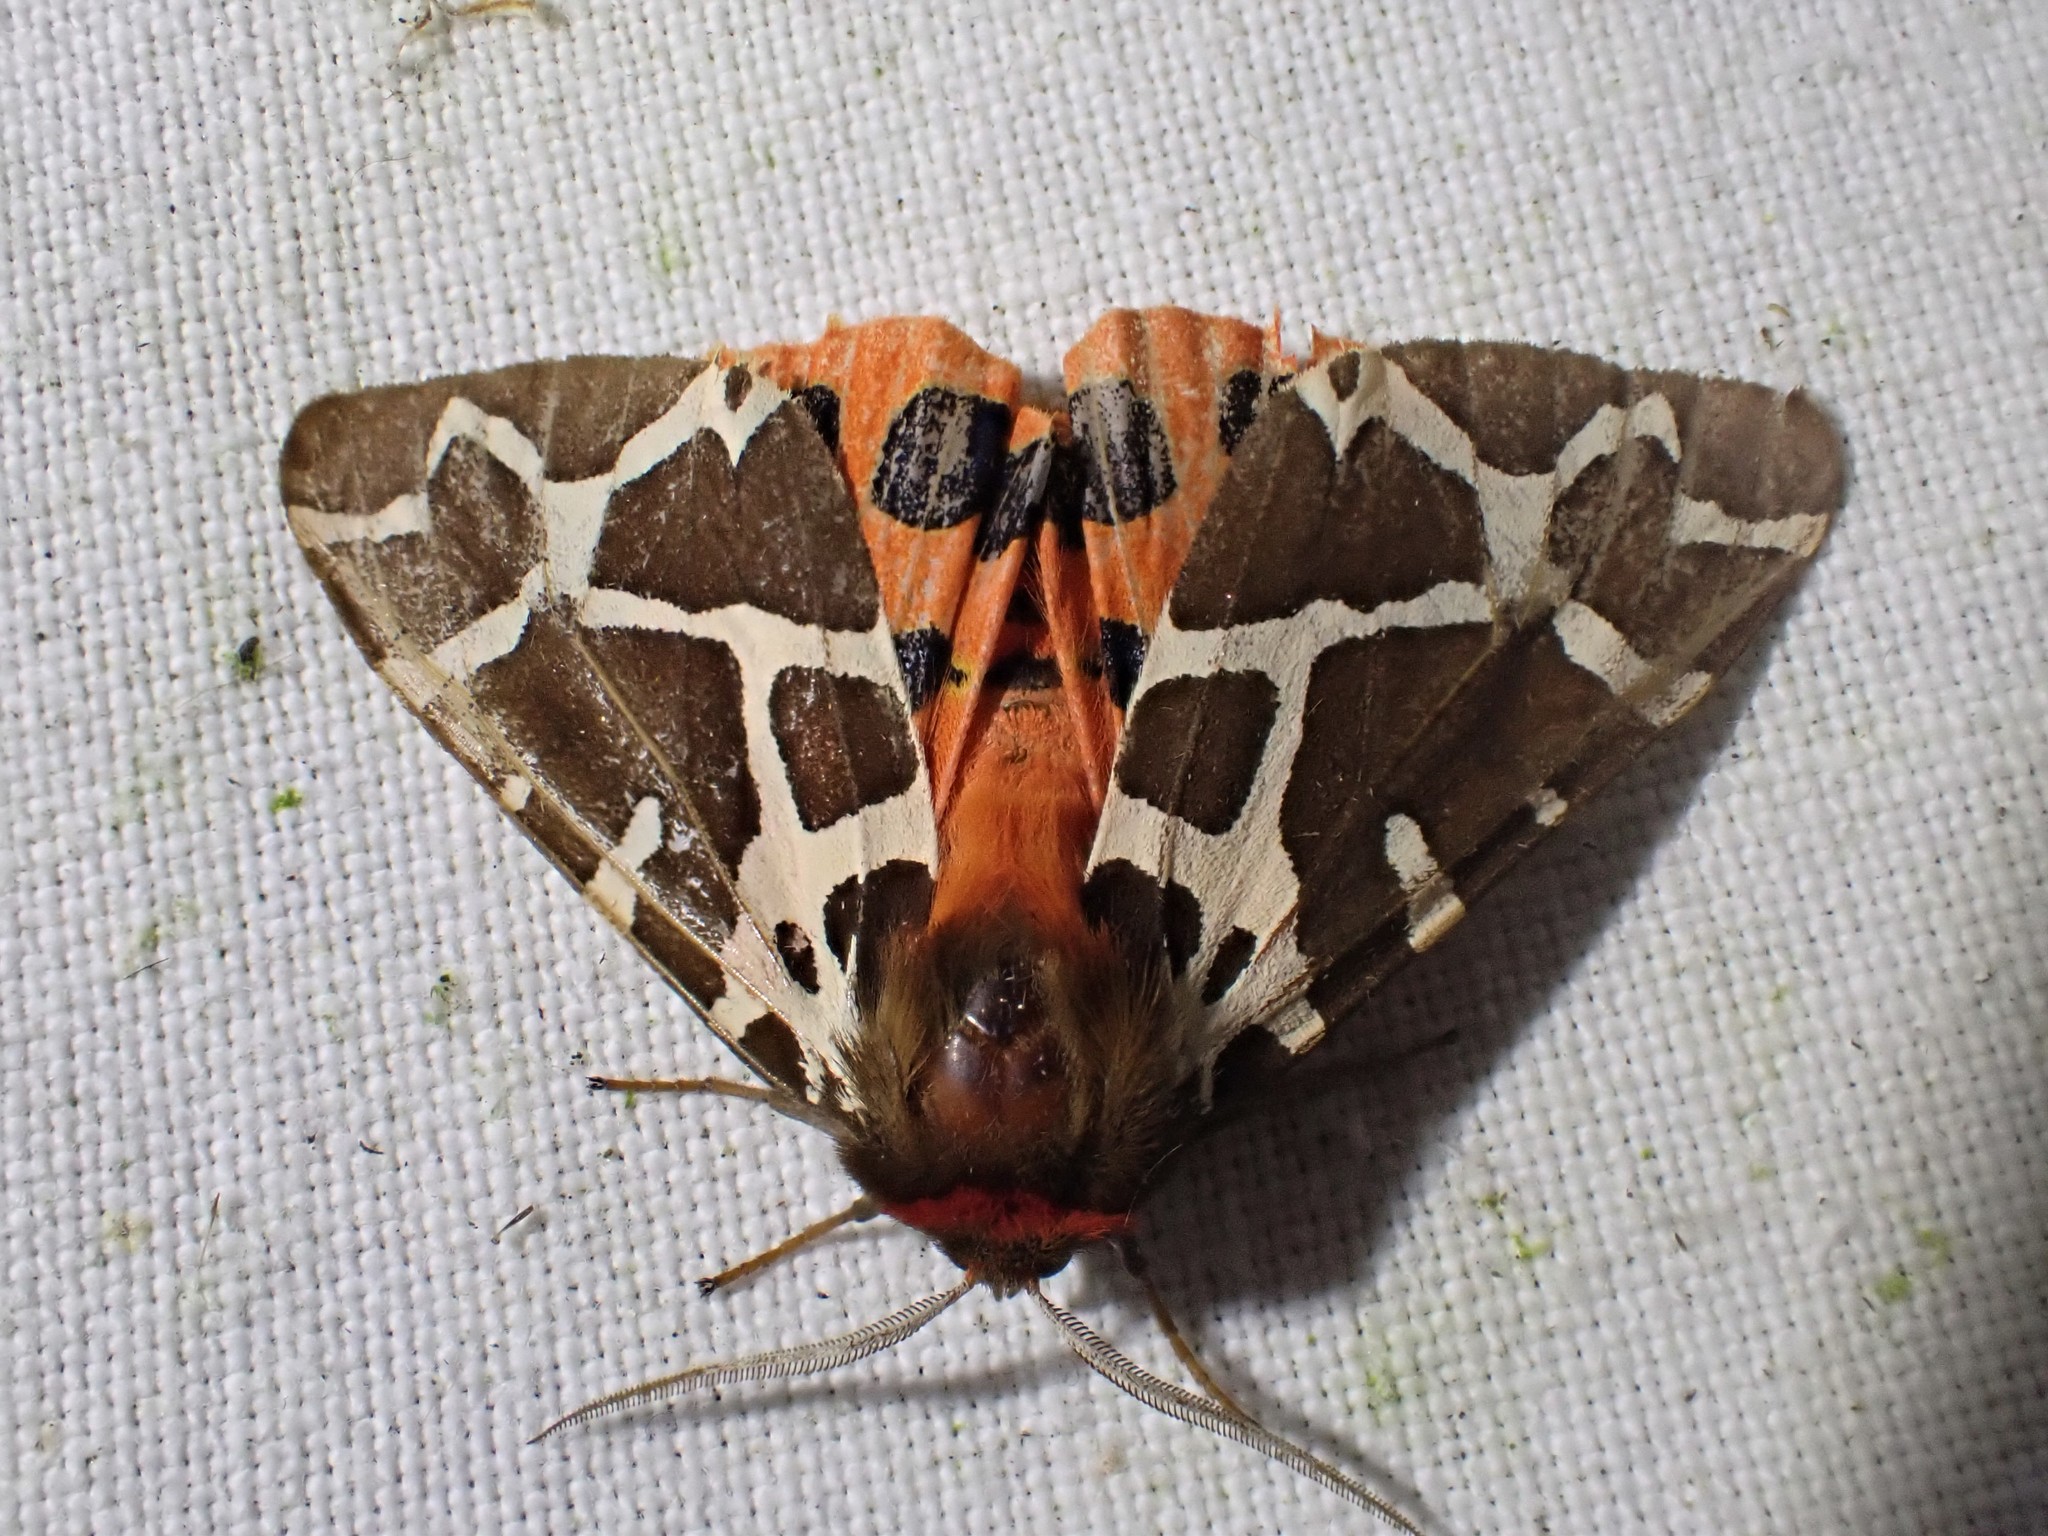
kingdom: Animalia
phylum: Arthropoda
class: Insecta
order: Lepidoptera
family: Erebidae
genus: Arctia
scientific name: Arctia caja
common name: Garden tiger
